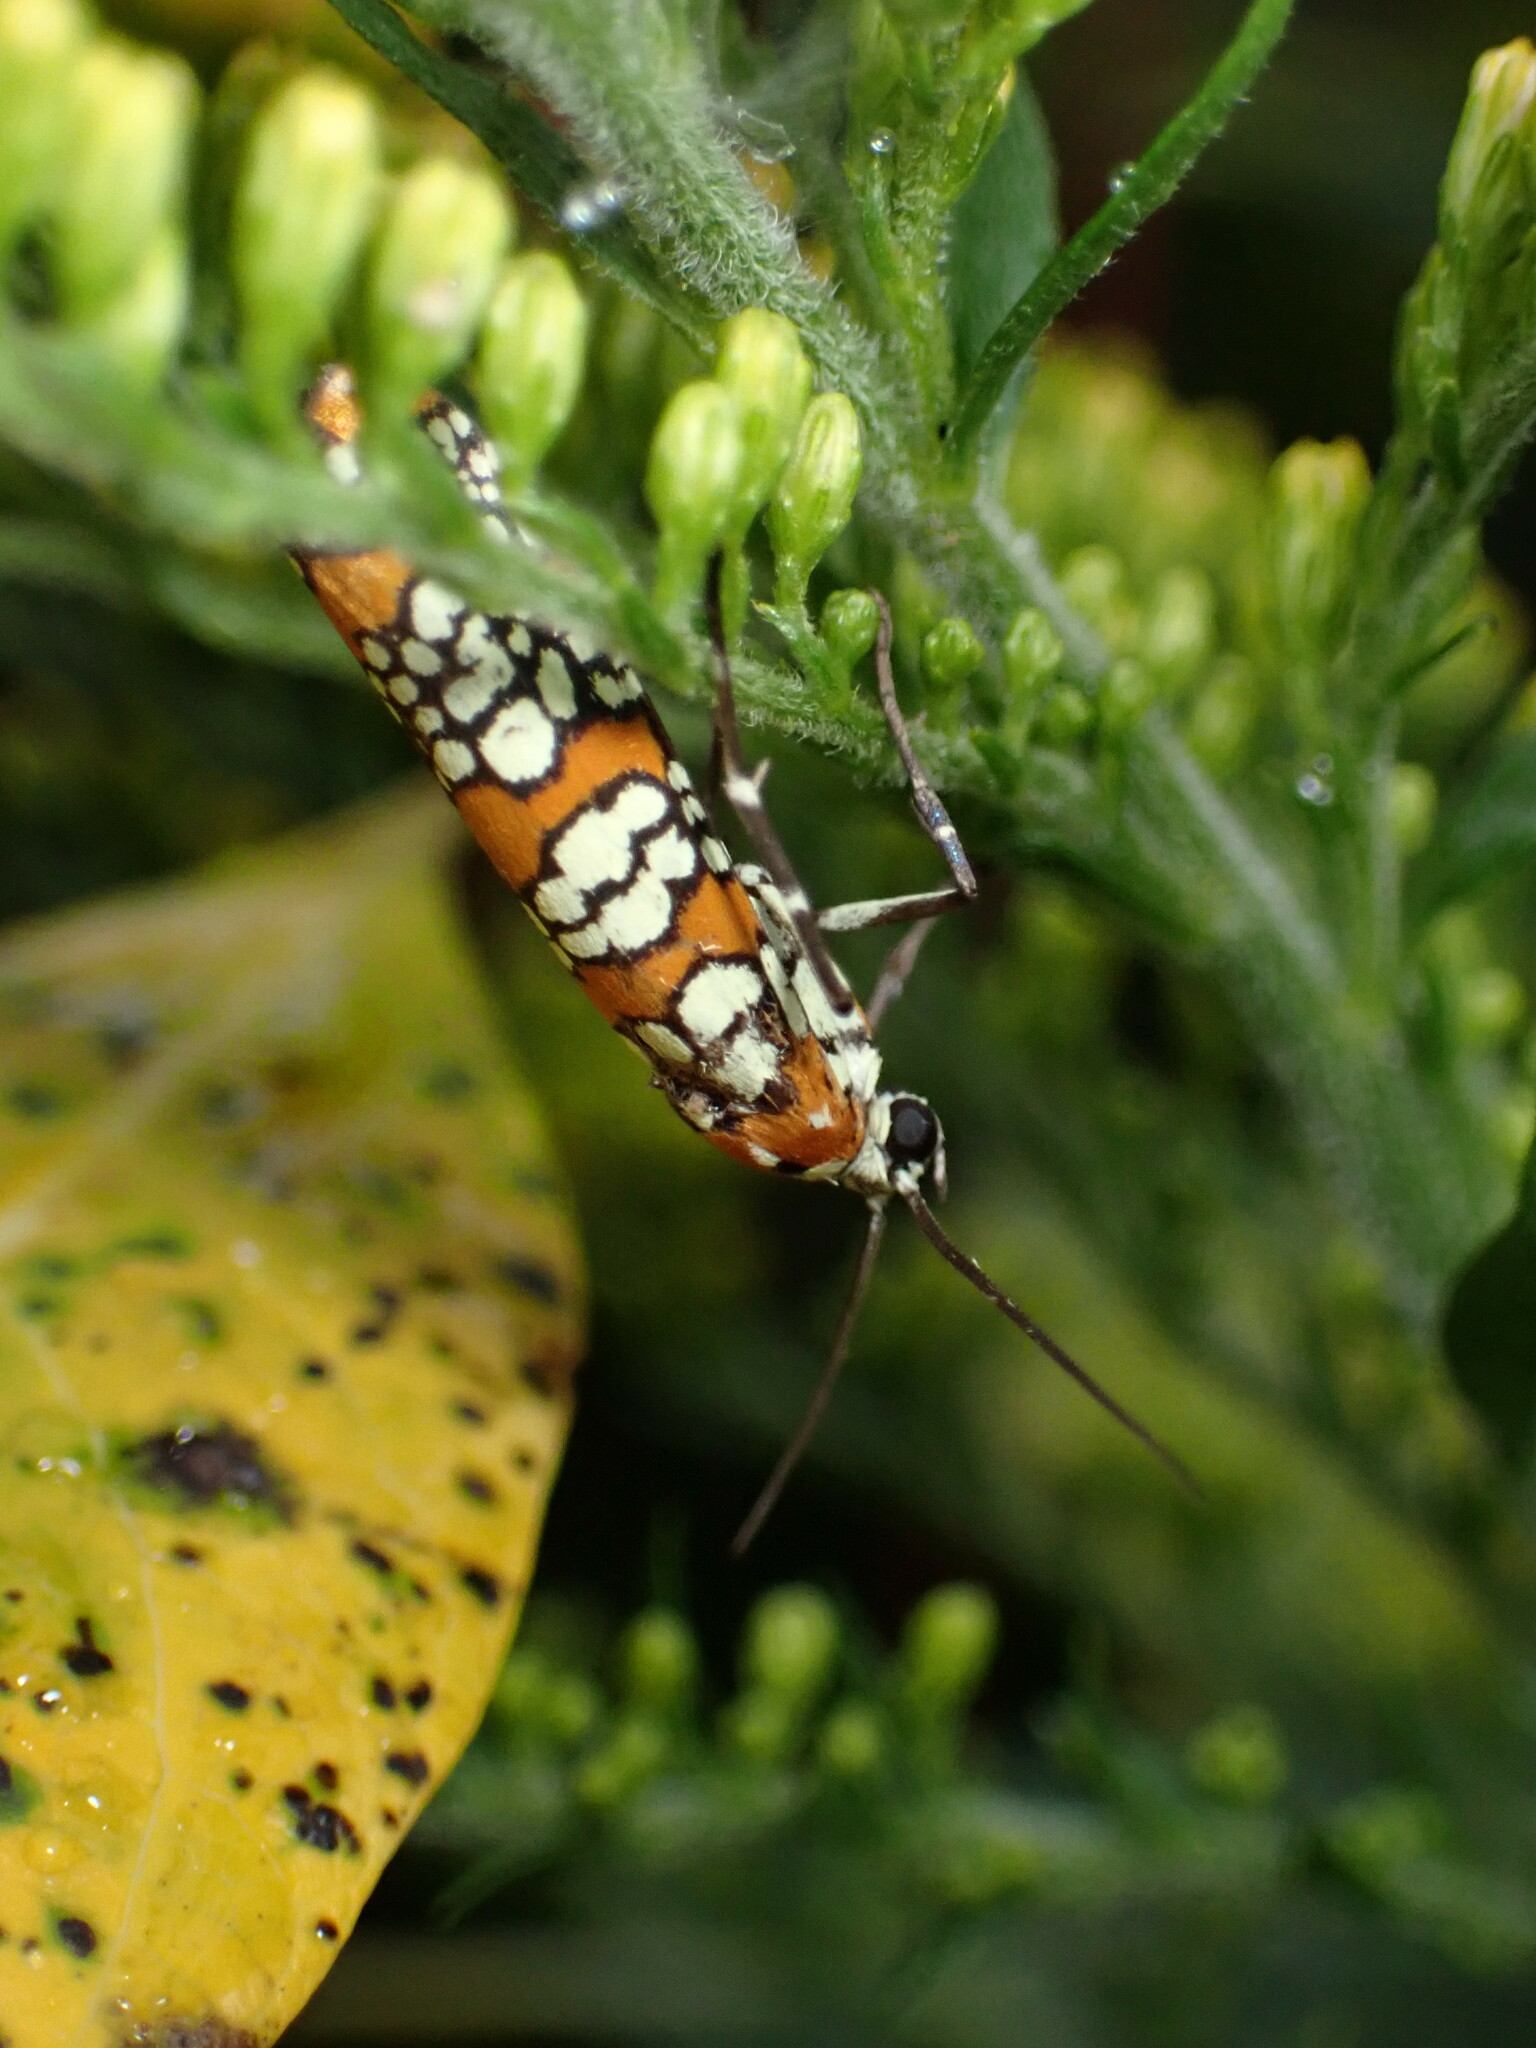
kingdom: Animalia
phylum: Arthropoda
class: Insecta
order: Lepidoptera
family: Attevidae
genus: Atteva
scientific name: Atteva punctella
